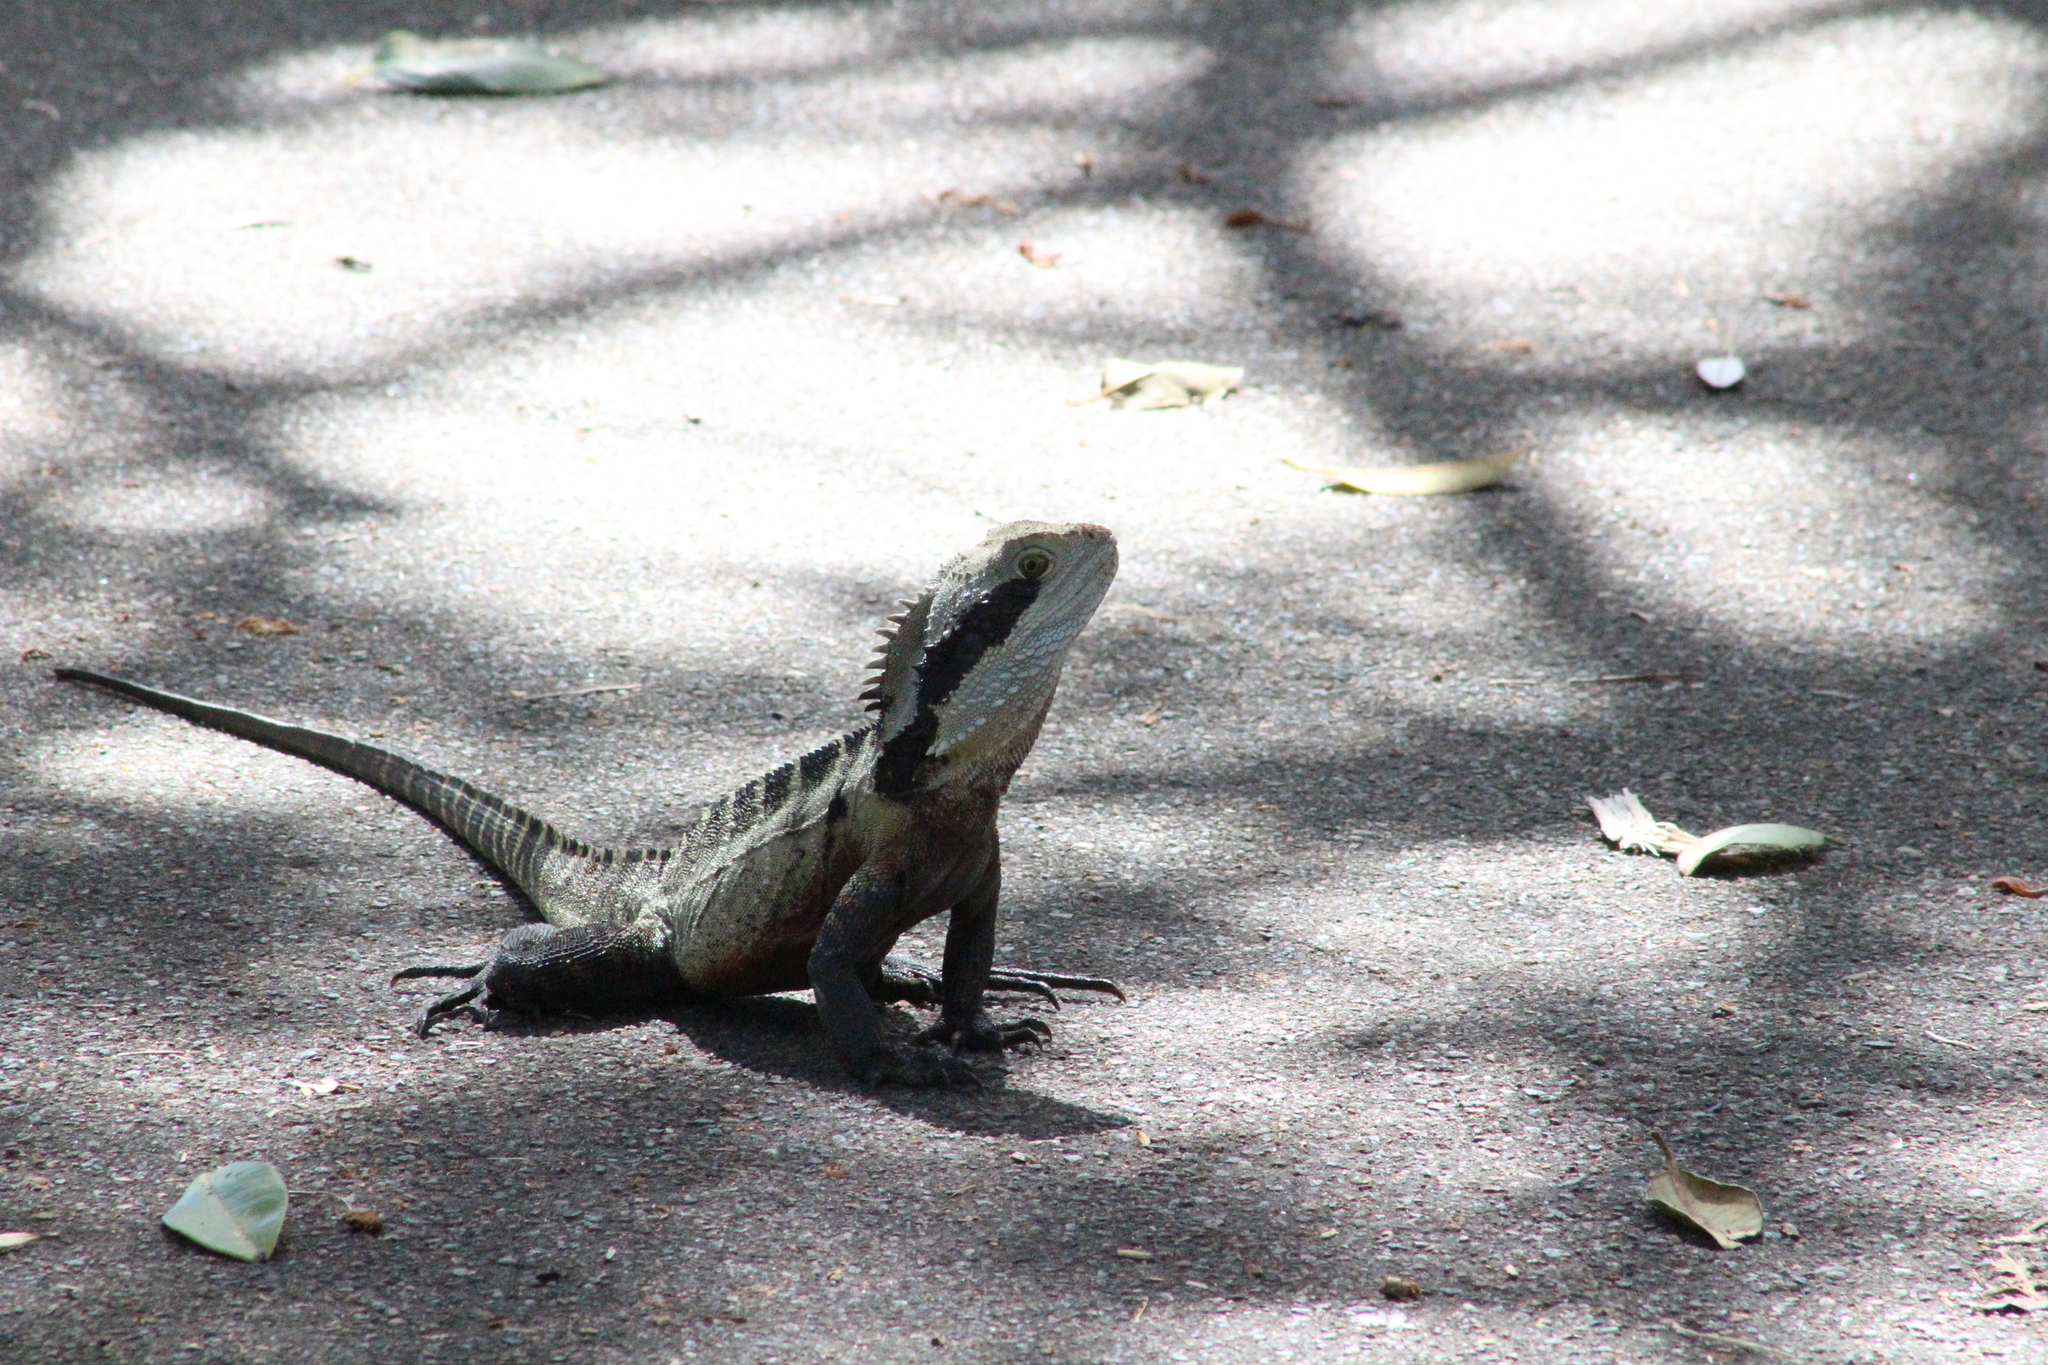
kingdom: Animalia
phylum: Chordata
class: Squamata
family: Agamidae
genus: Intellagama
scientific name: Intellagama lesueurii
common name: Eastern water dragon
